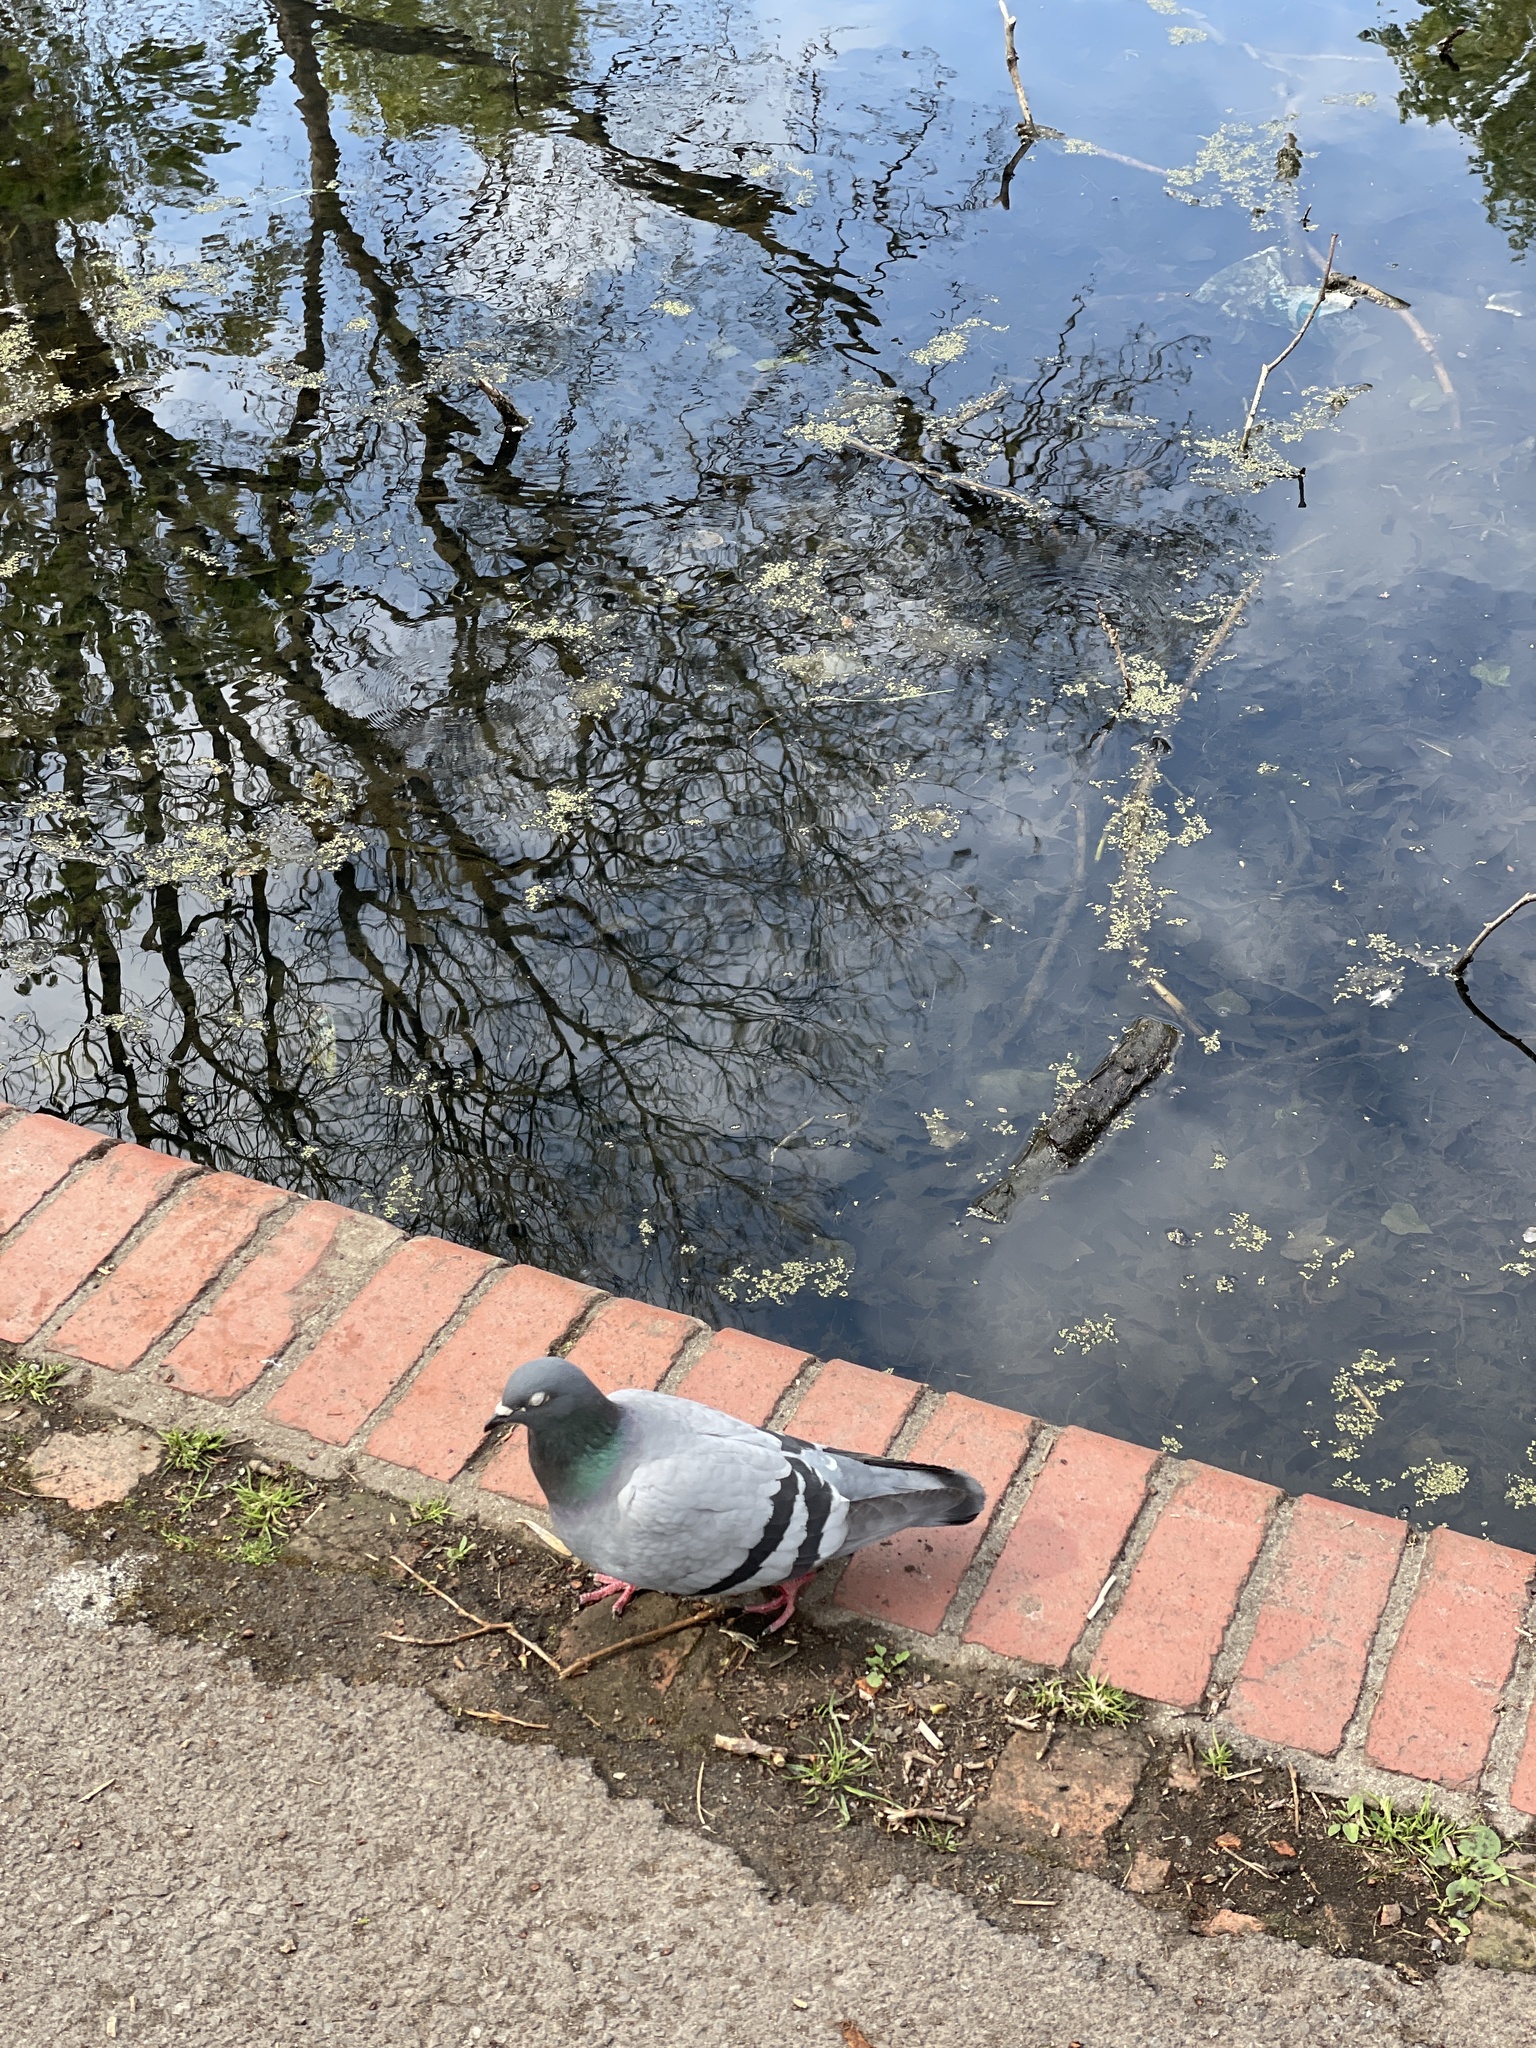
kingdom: Animalia
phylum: Chordata
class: Aves
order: Columbiformes
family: Columbidae
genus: Columba
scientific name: Columba livia
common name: Rock pigeon
